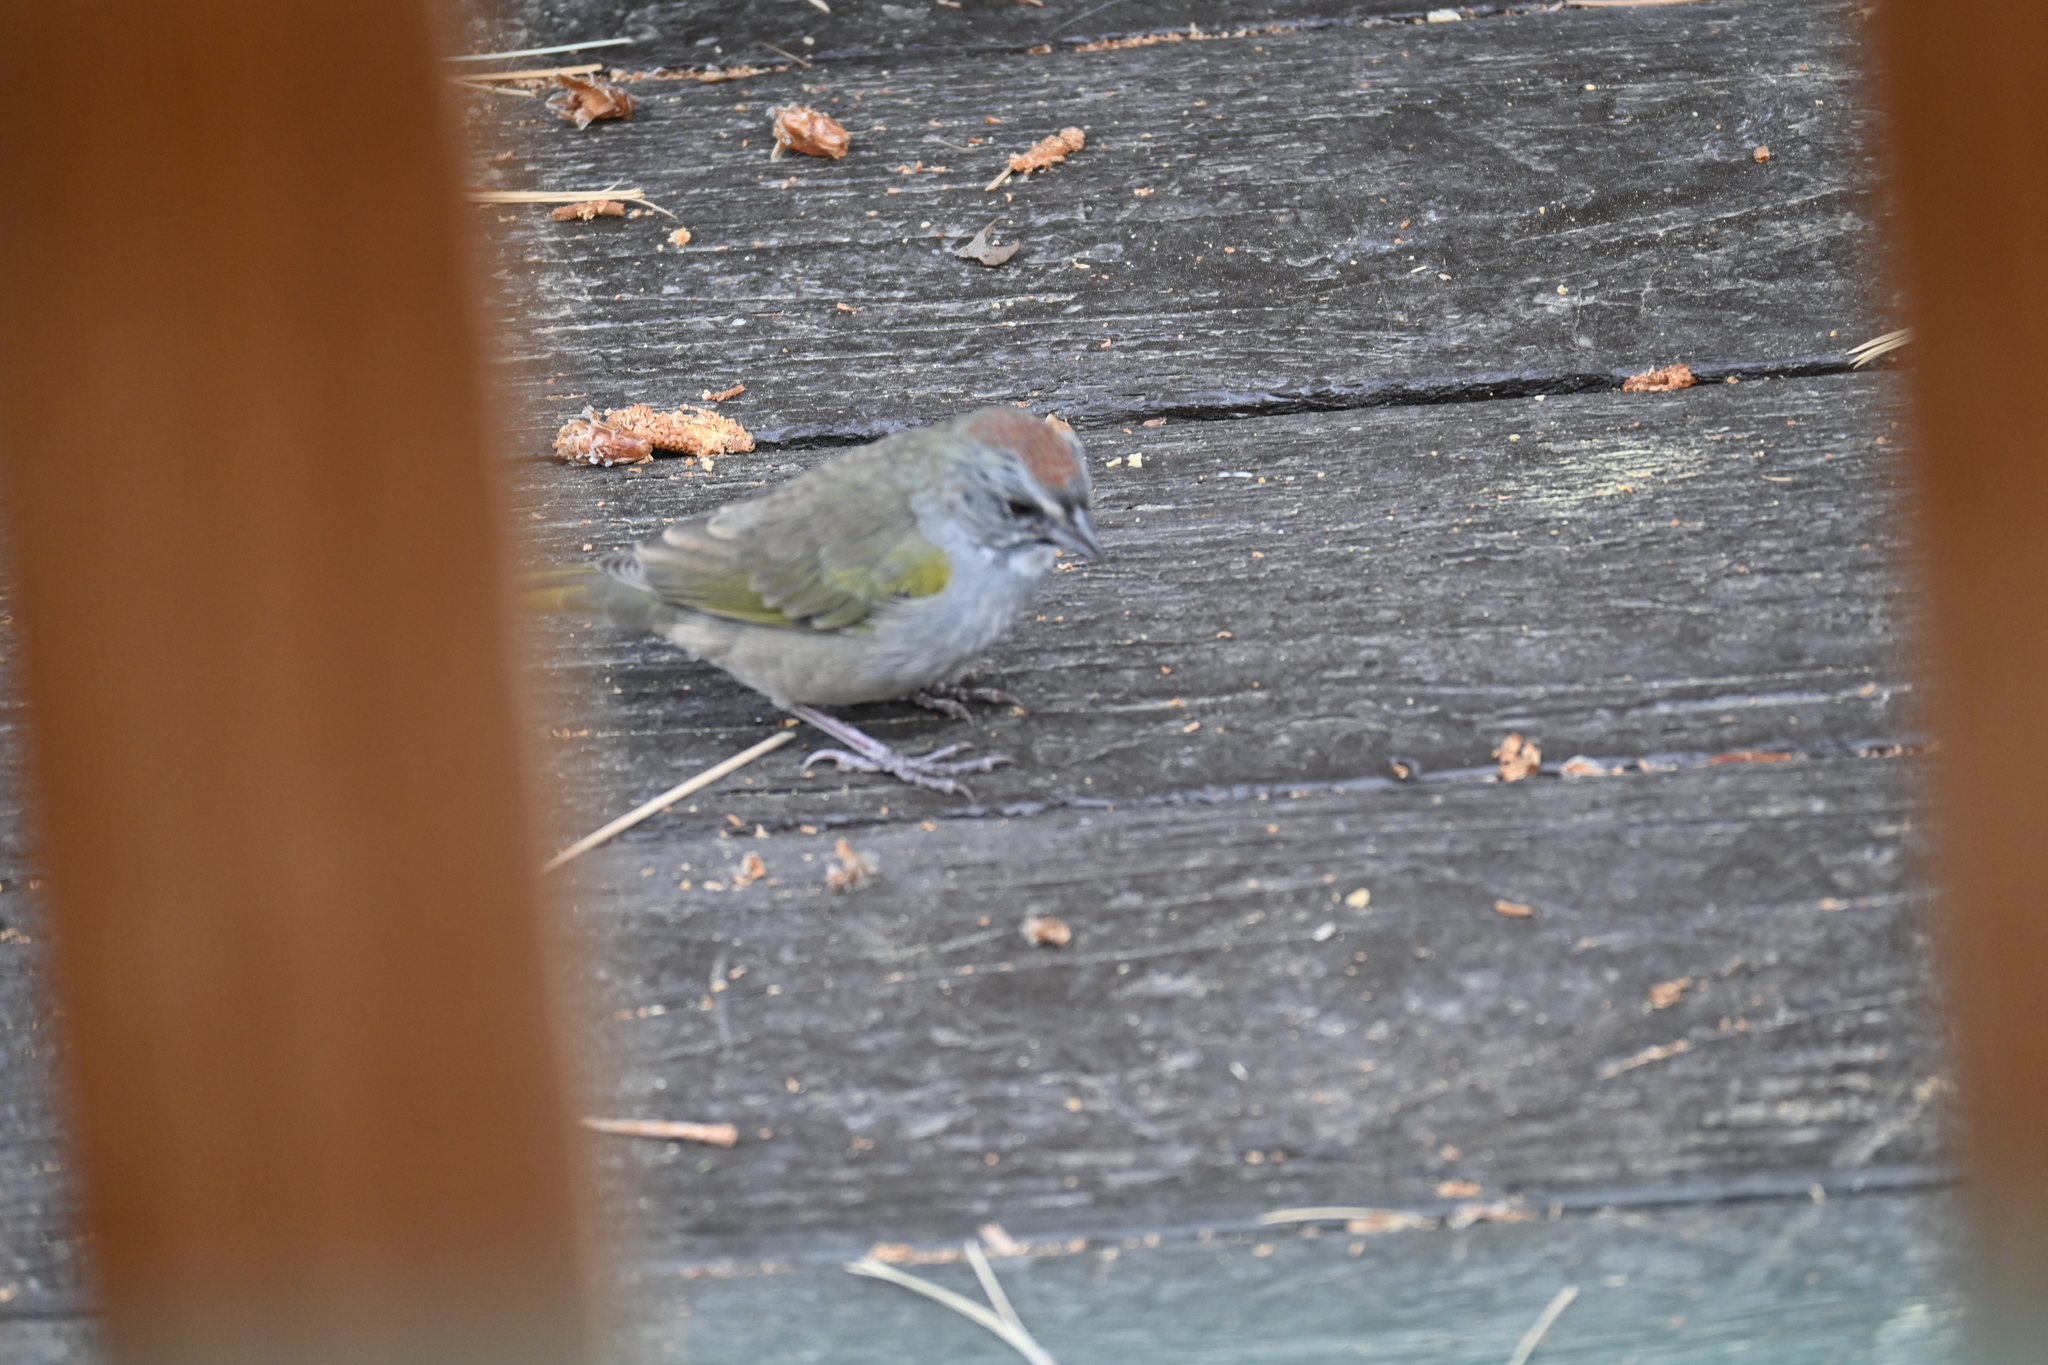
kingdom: Animalia
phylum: Chordata
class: Aves
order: Passeriformes
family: Passerellidae
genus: Pipilo
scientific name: Pipilo chlorurus
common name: Green-tailed towhee
